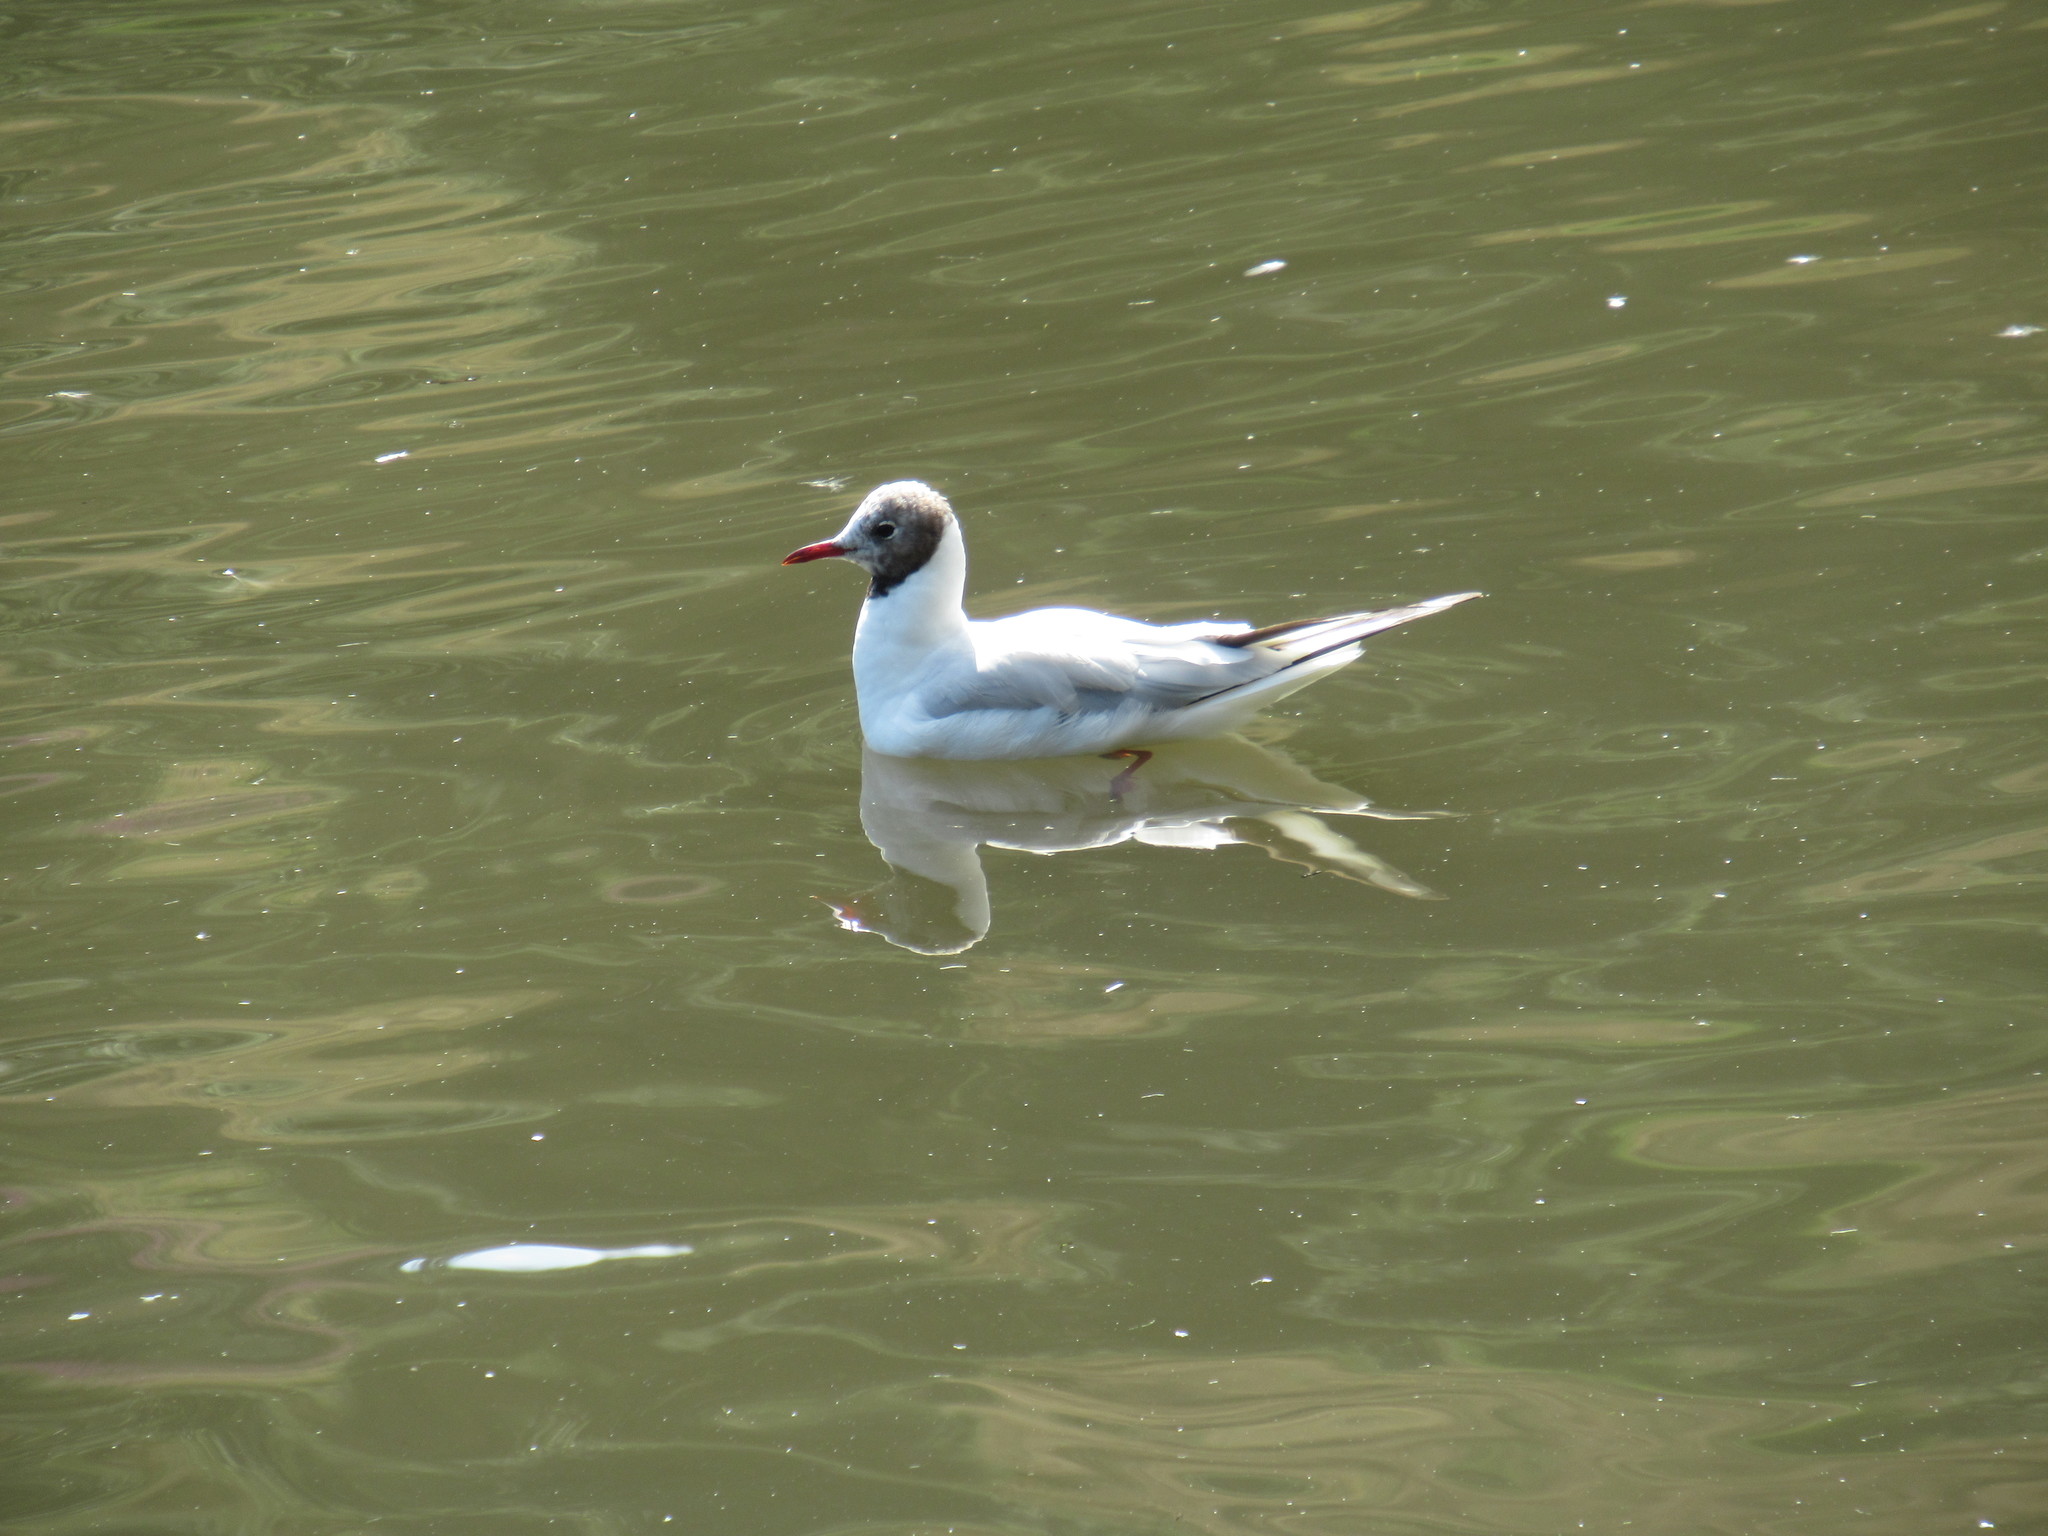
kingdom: Animalia
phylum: Chordata
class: Aves
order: Charadriiformes
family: Laridae
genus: Chroicocephalus
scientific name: Chroicocephalus ridibundus
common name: Black-headed gull
